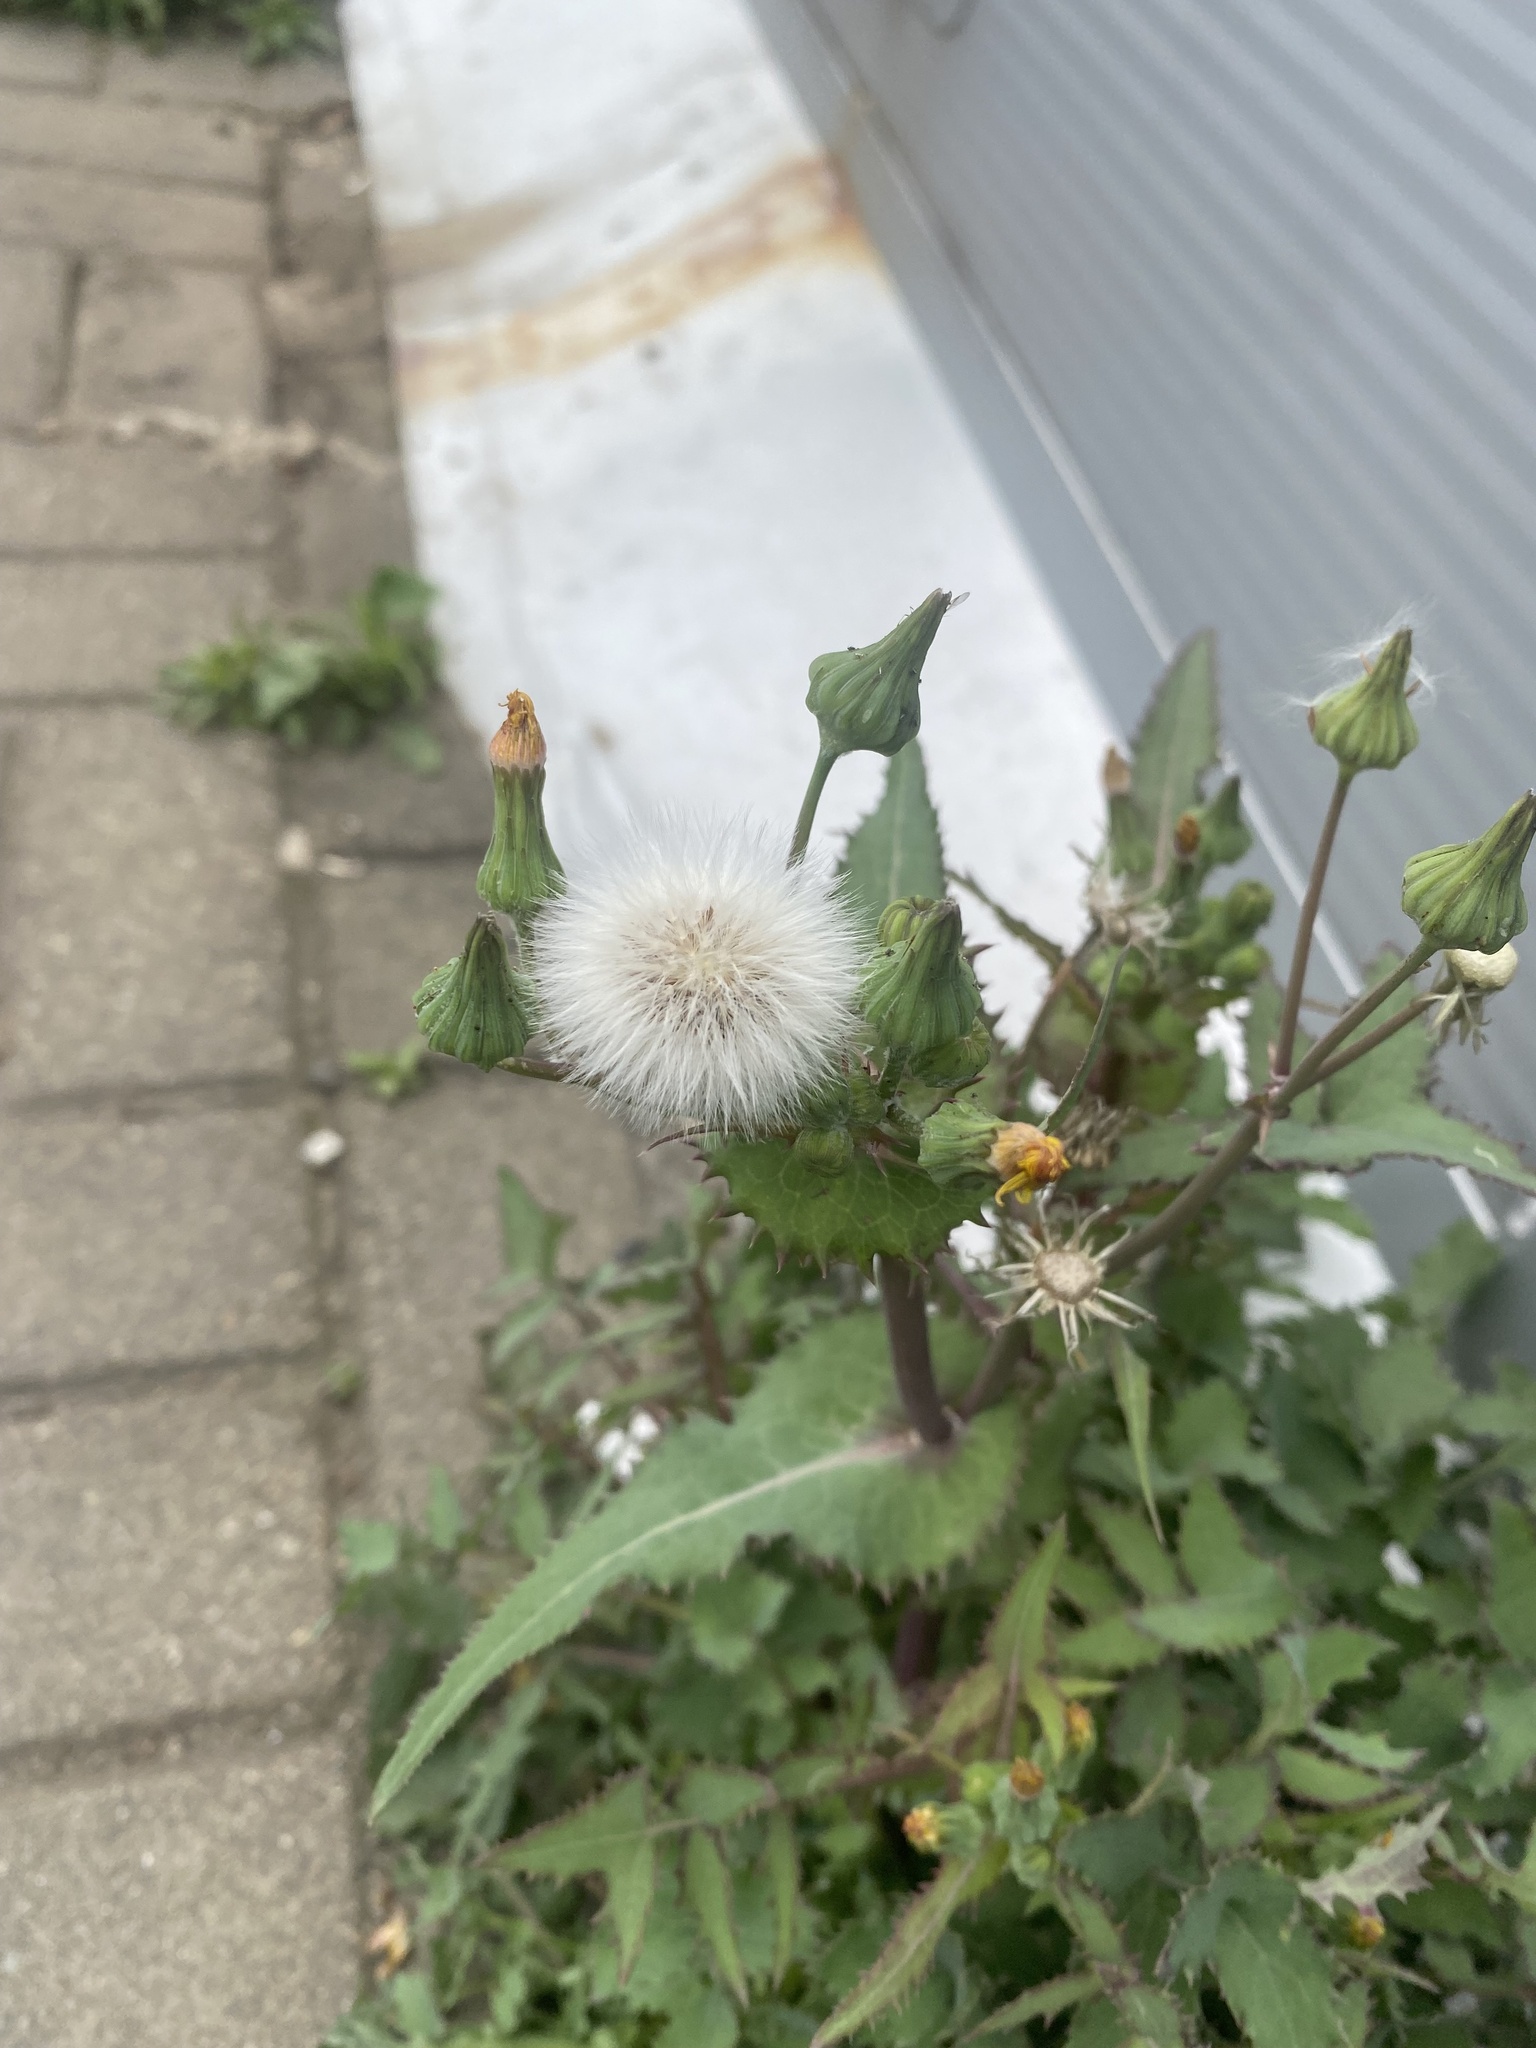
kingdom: Plantae
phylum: Tracheophyta
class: Magnoliopsida
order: Asterales
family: Asteraceae
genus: Sonchus
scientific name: Sonchus oleraceus
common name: Common sowthistle
